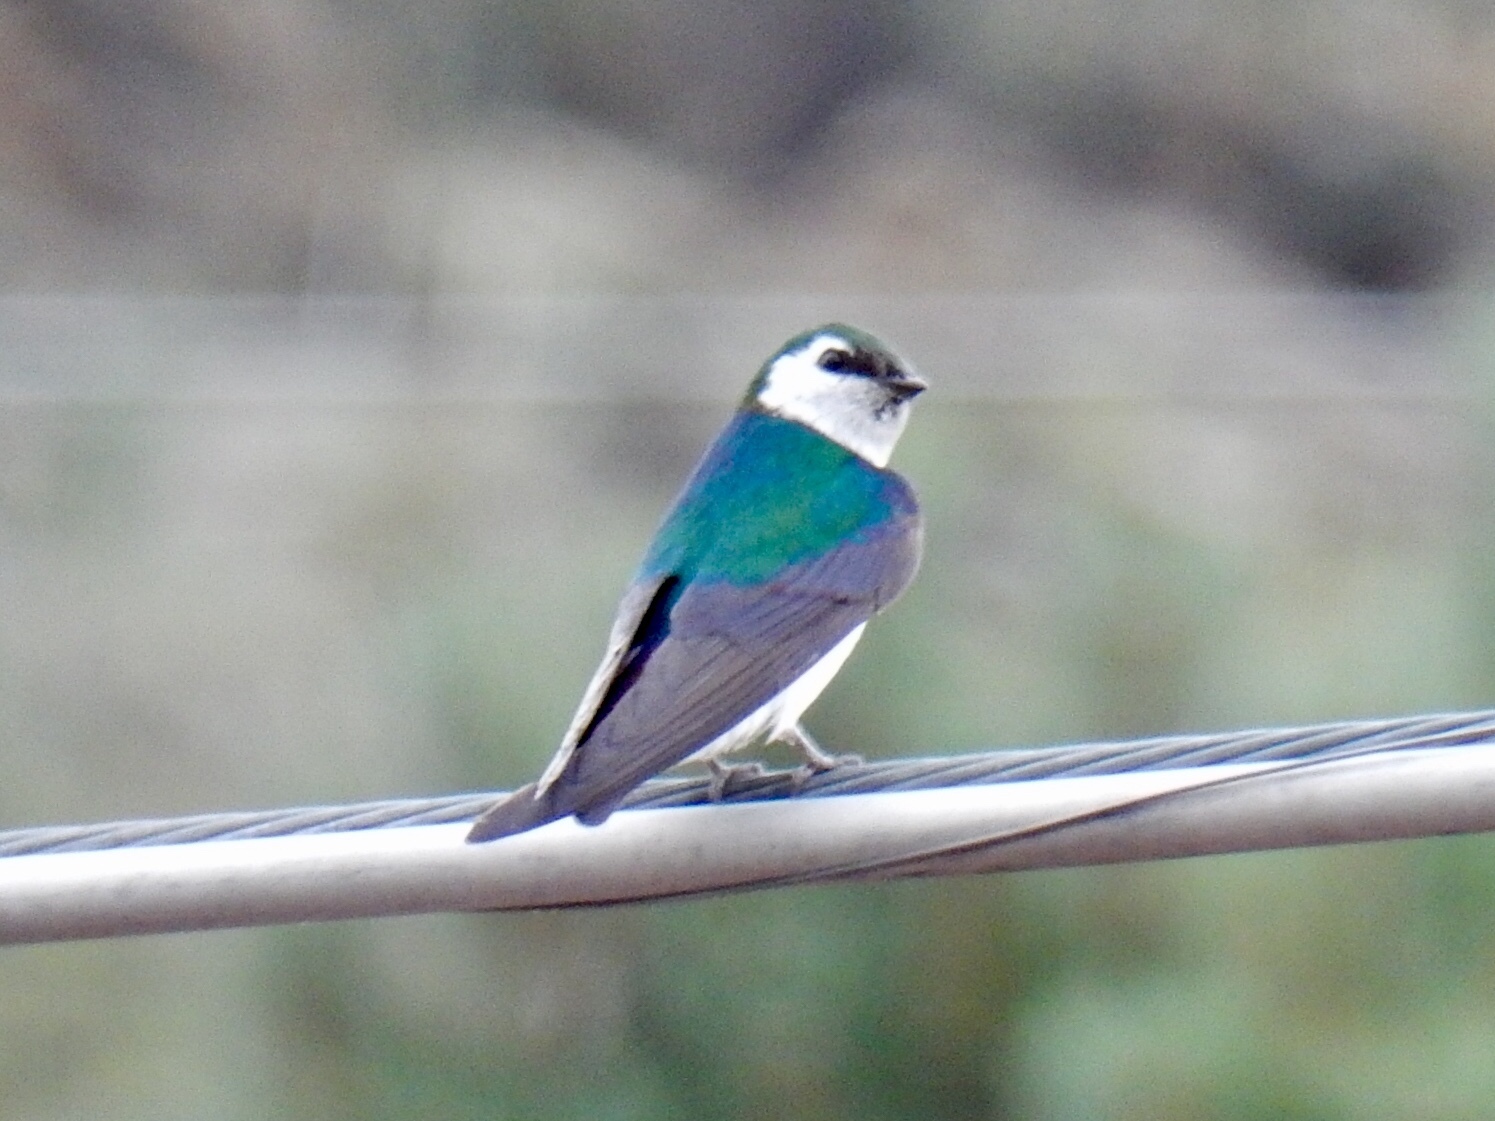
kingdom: Animalia
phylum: Chordata
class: Aves
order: Passeriformes
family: Hirundinidae
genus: Tachycineta
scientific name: Tachycineta thalassina
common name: Violet-green swallow
